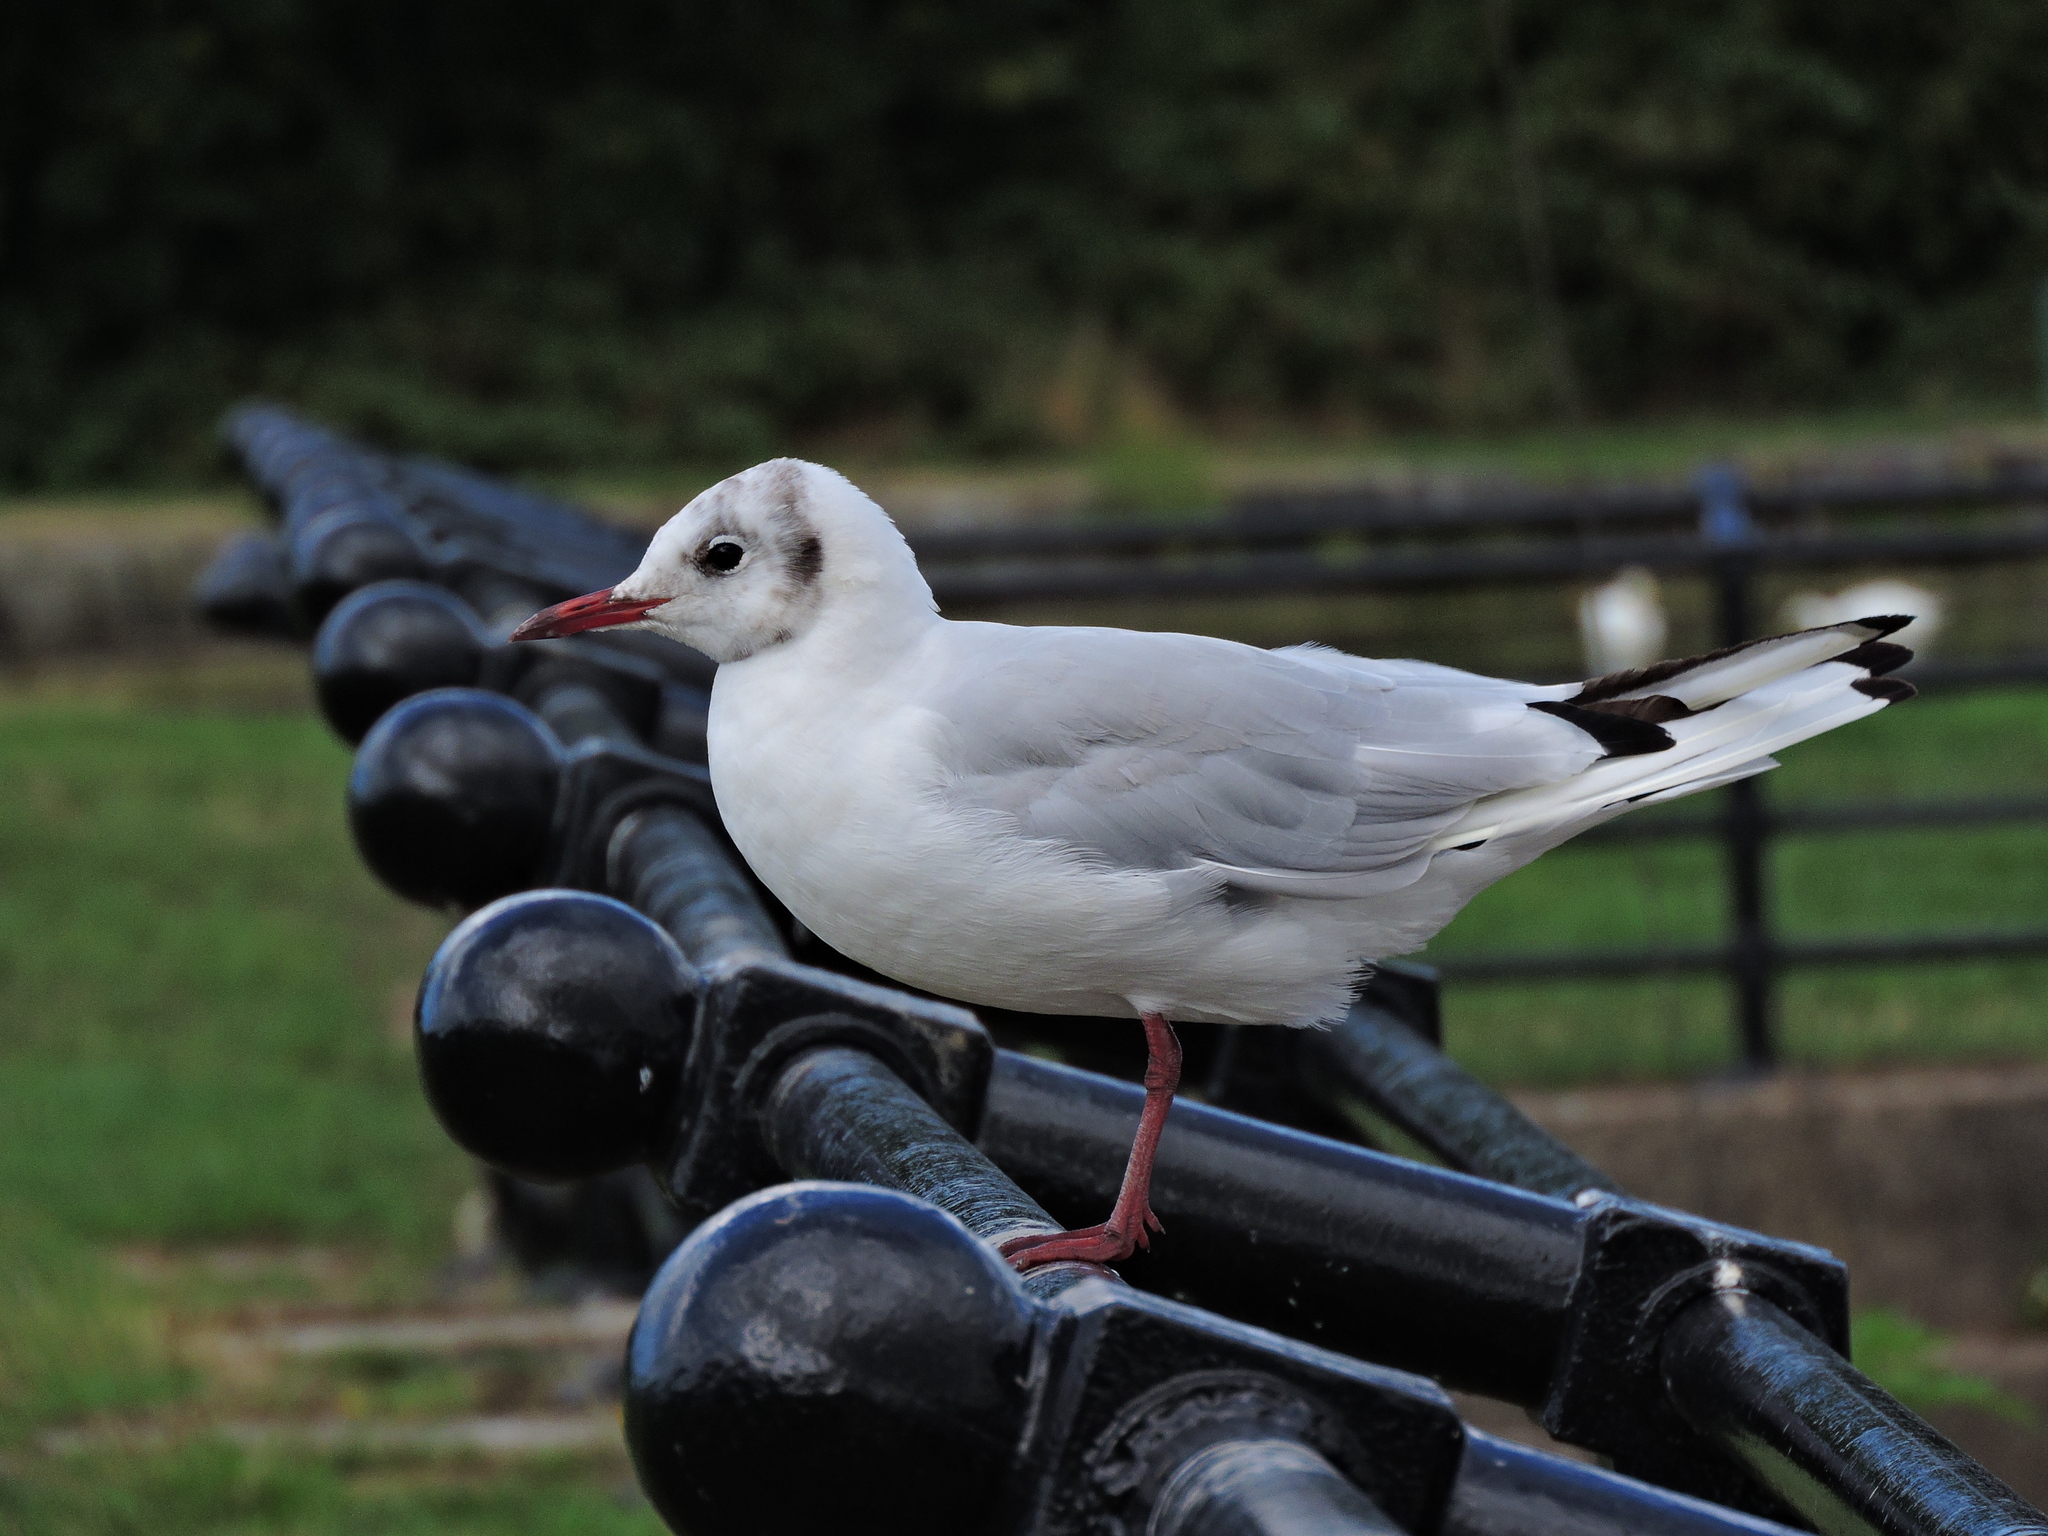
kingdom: Animalia
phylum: Chordata
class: Aves
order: Charadriiformes
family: Laridae
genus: Chroicocephalus
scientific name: Chroicocephalus ridibundus
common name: Black-headed gull
